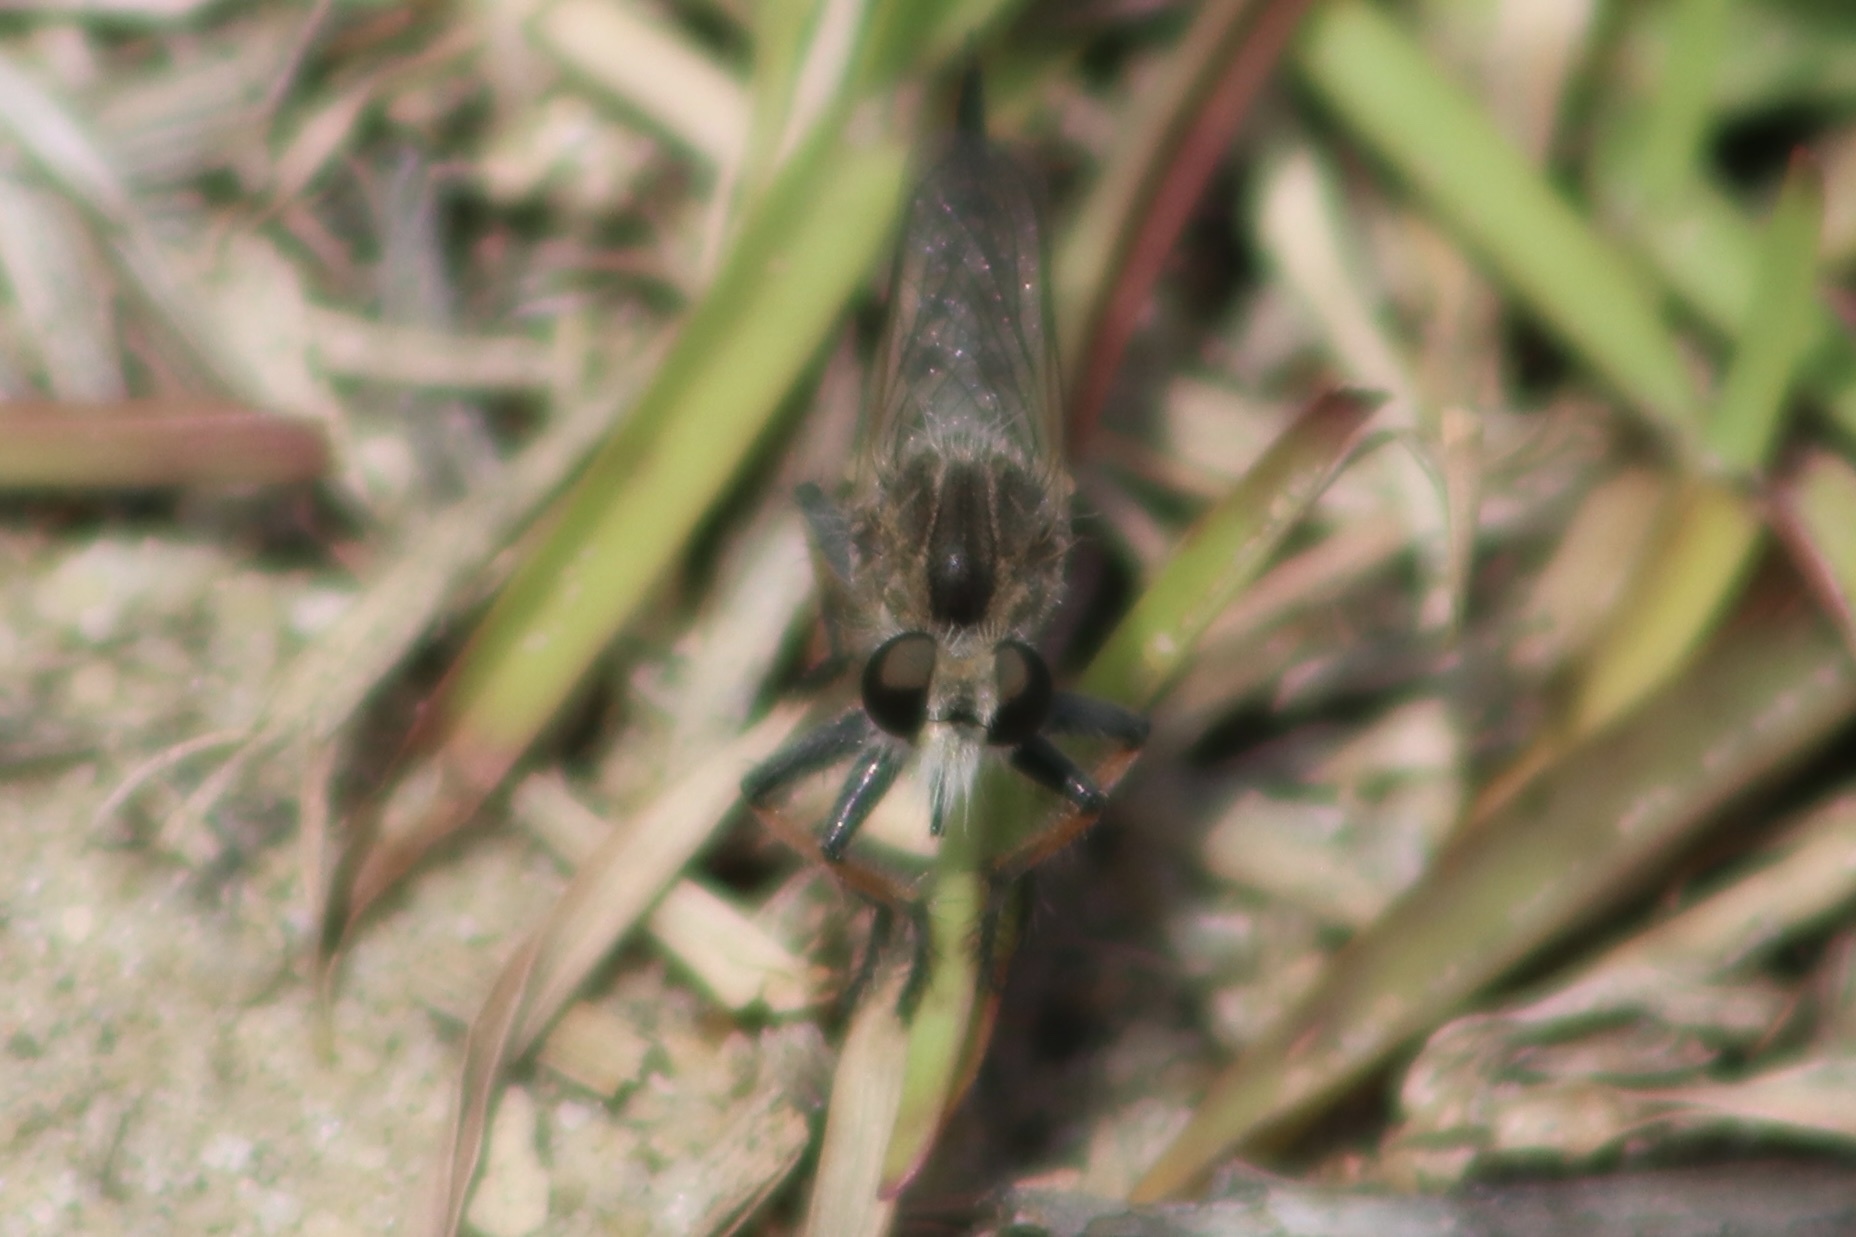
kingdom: Animalia
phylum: Arthropoda
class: Insecta
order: Diptera
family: Asilidae
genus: Efferia
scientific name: Efferia albibarbis
